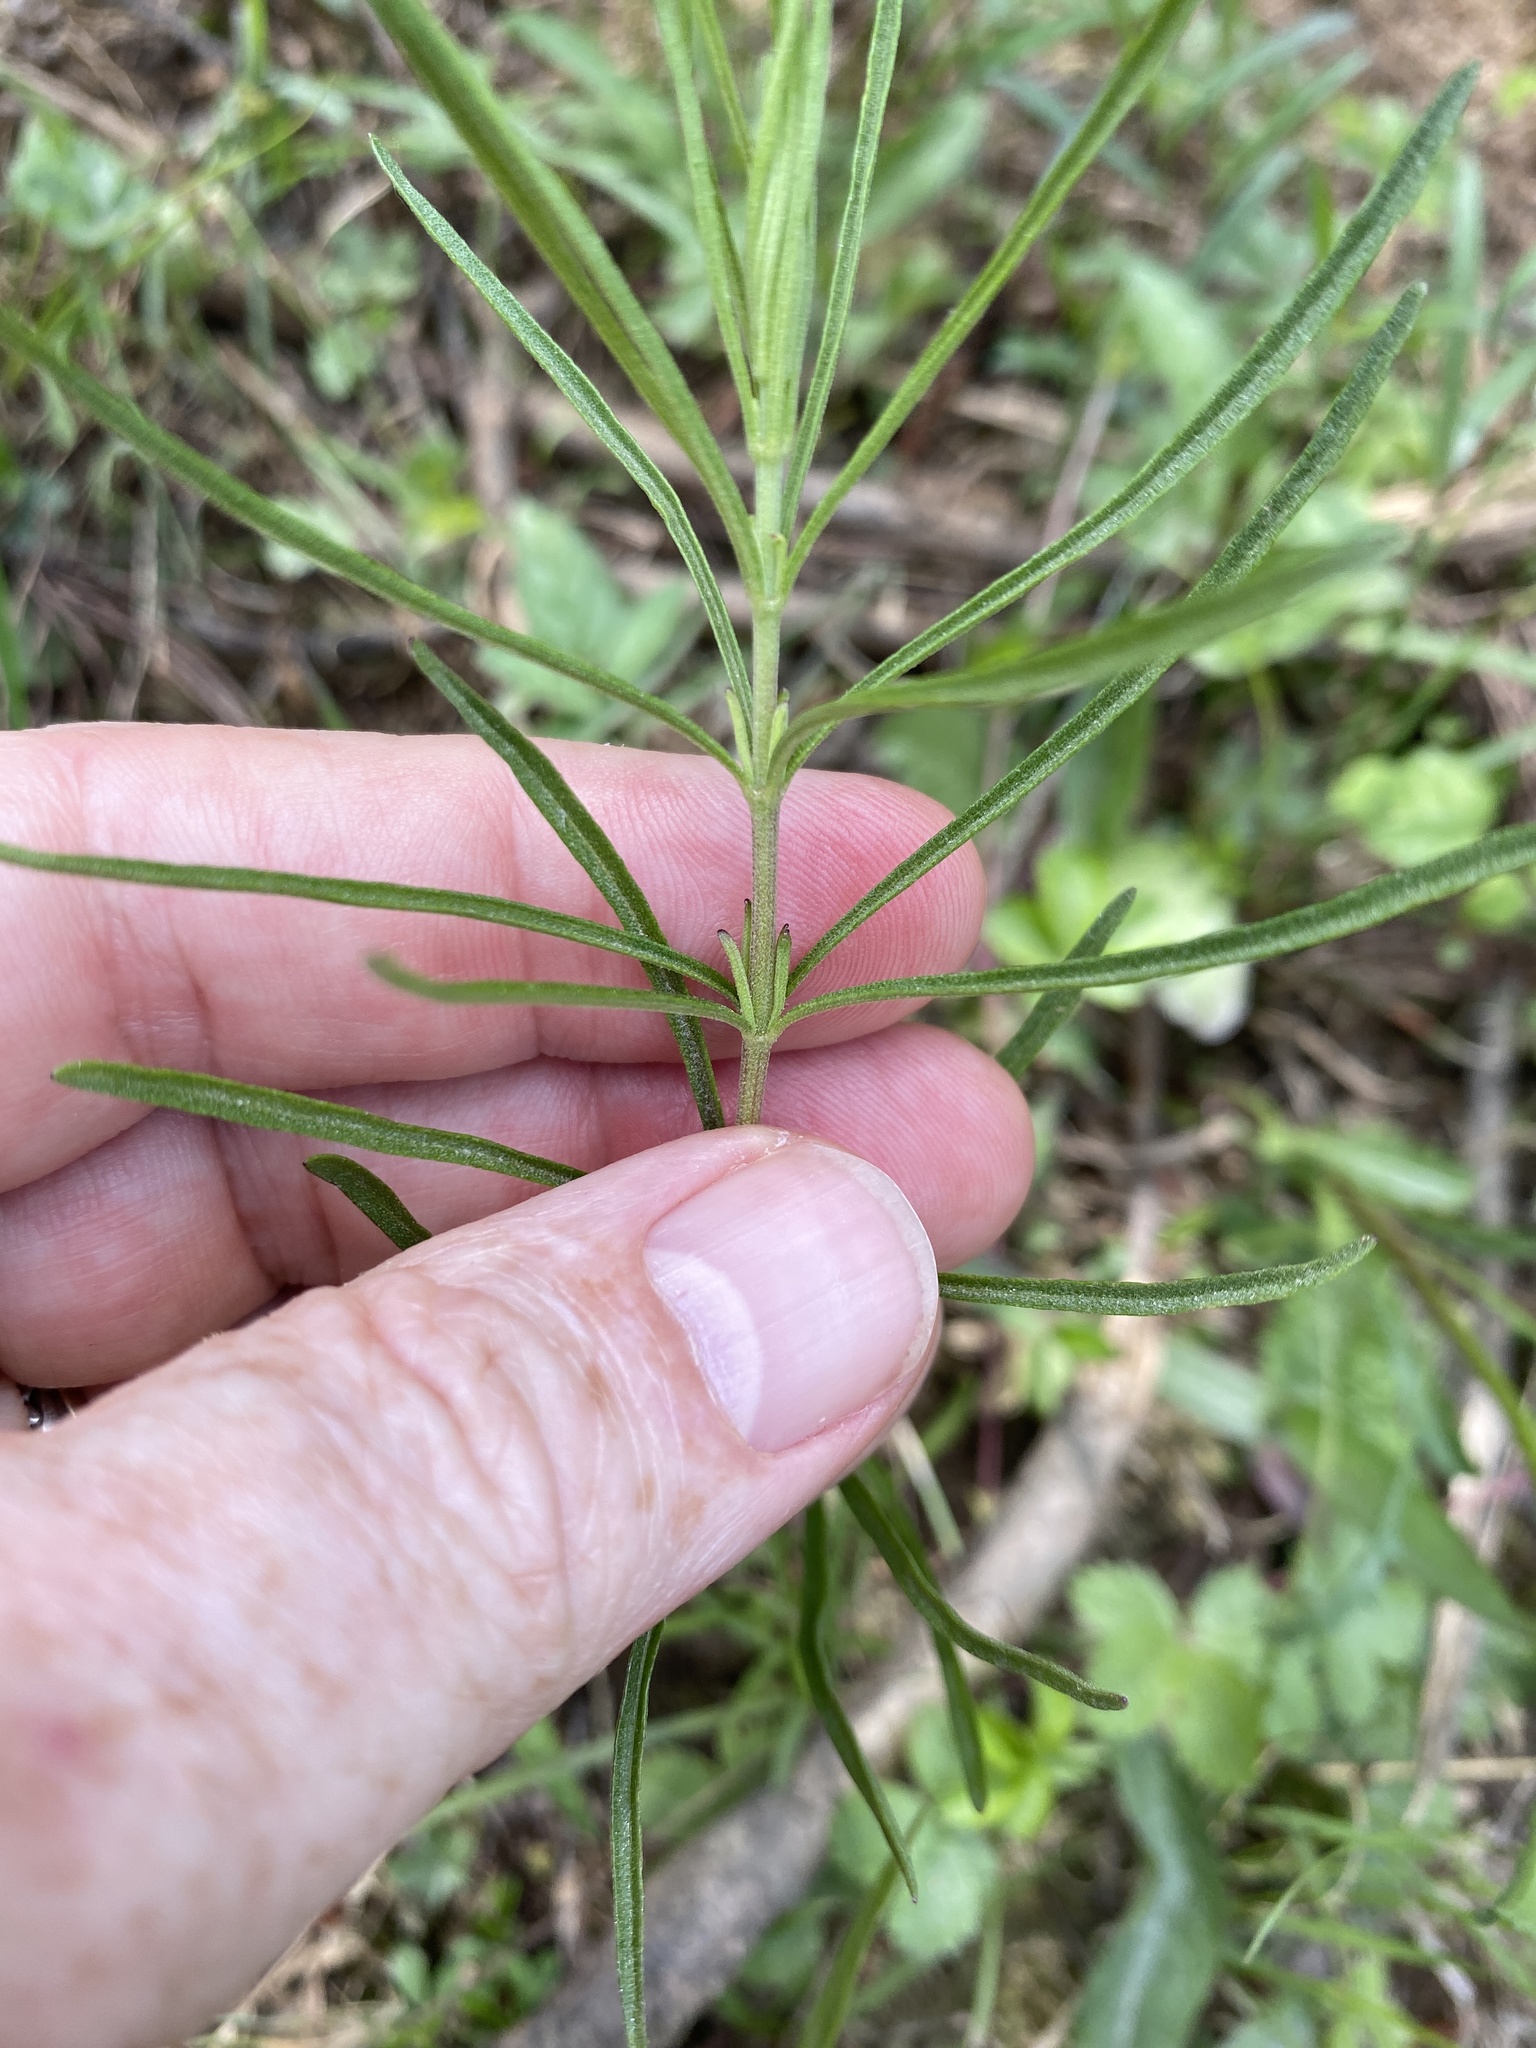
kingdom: Plantae
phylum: Tracheophyta
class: Magnoliopsida
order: Asterales
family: Asteraceae
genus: Eupatorium
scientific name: Eupatorium hyssopifolium
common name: Hyssop-leaf thoroughwort
